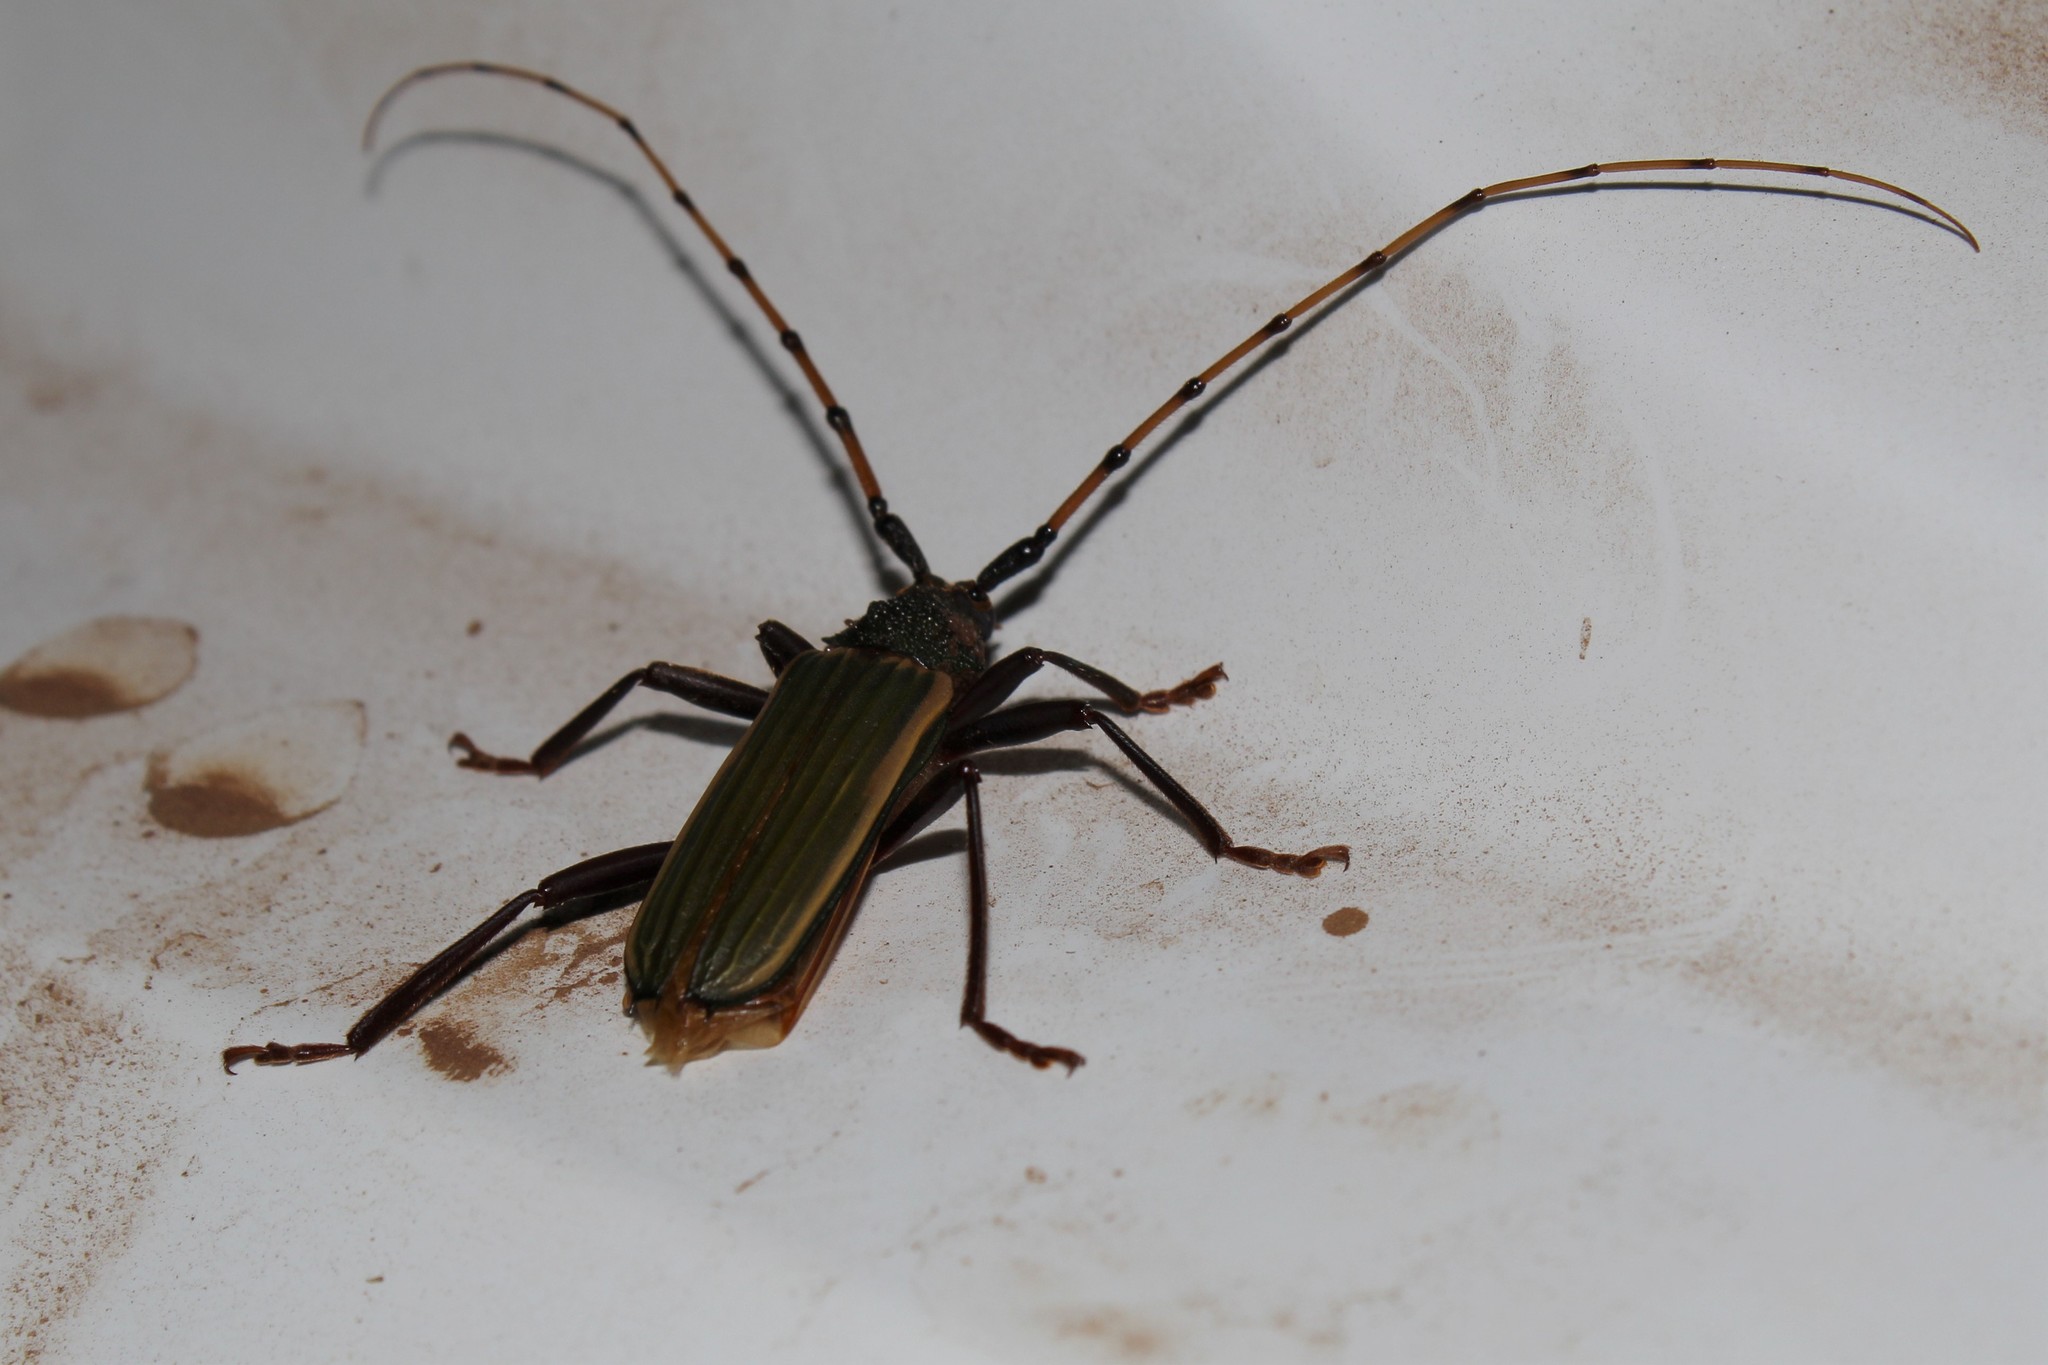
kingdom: Animalia
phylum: Arthropoda
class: Insecta
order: Coleoptera
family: Cerambycidae
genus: Chlorida
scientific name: Chlorida costata
